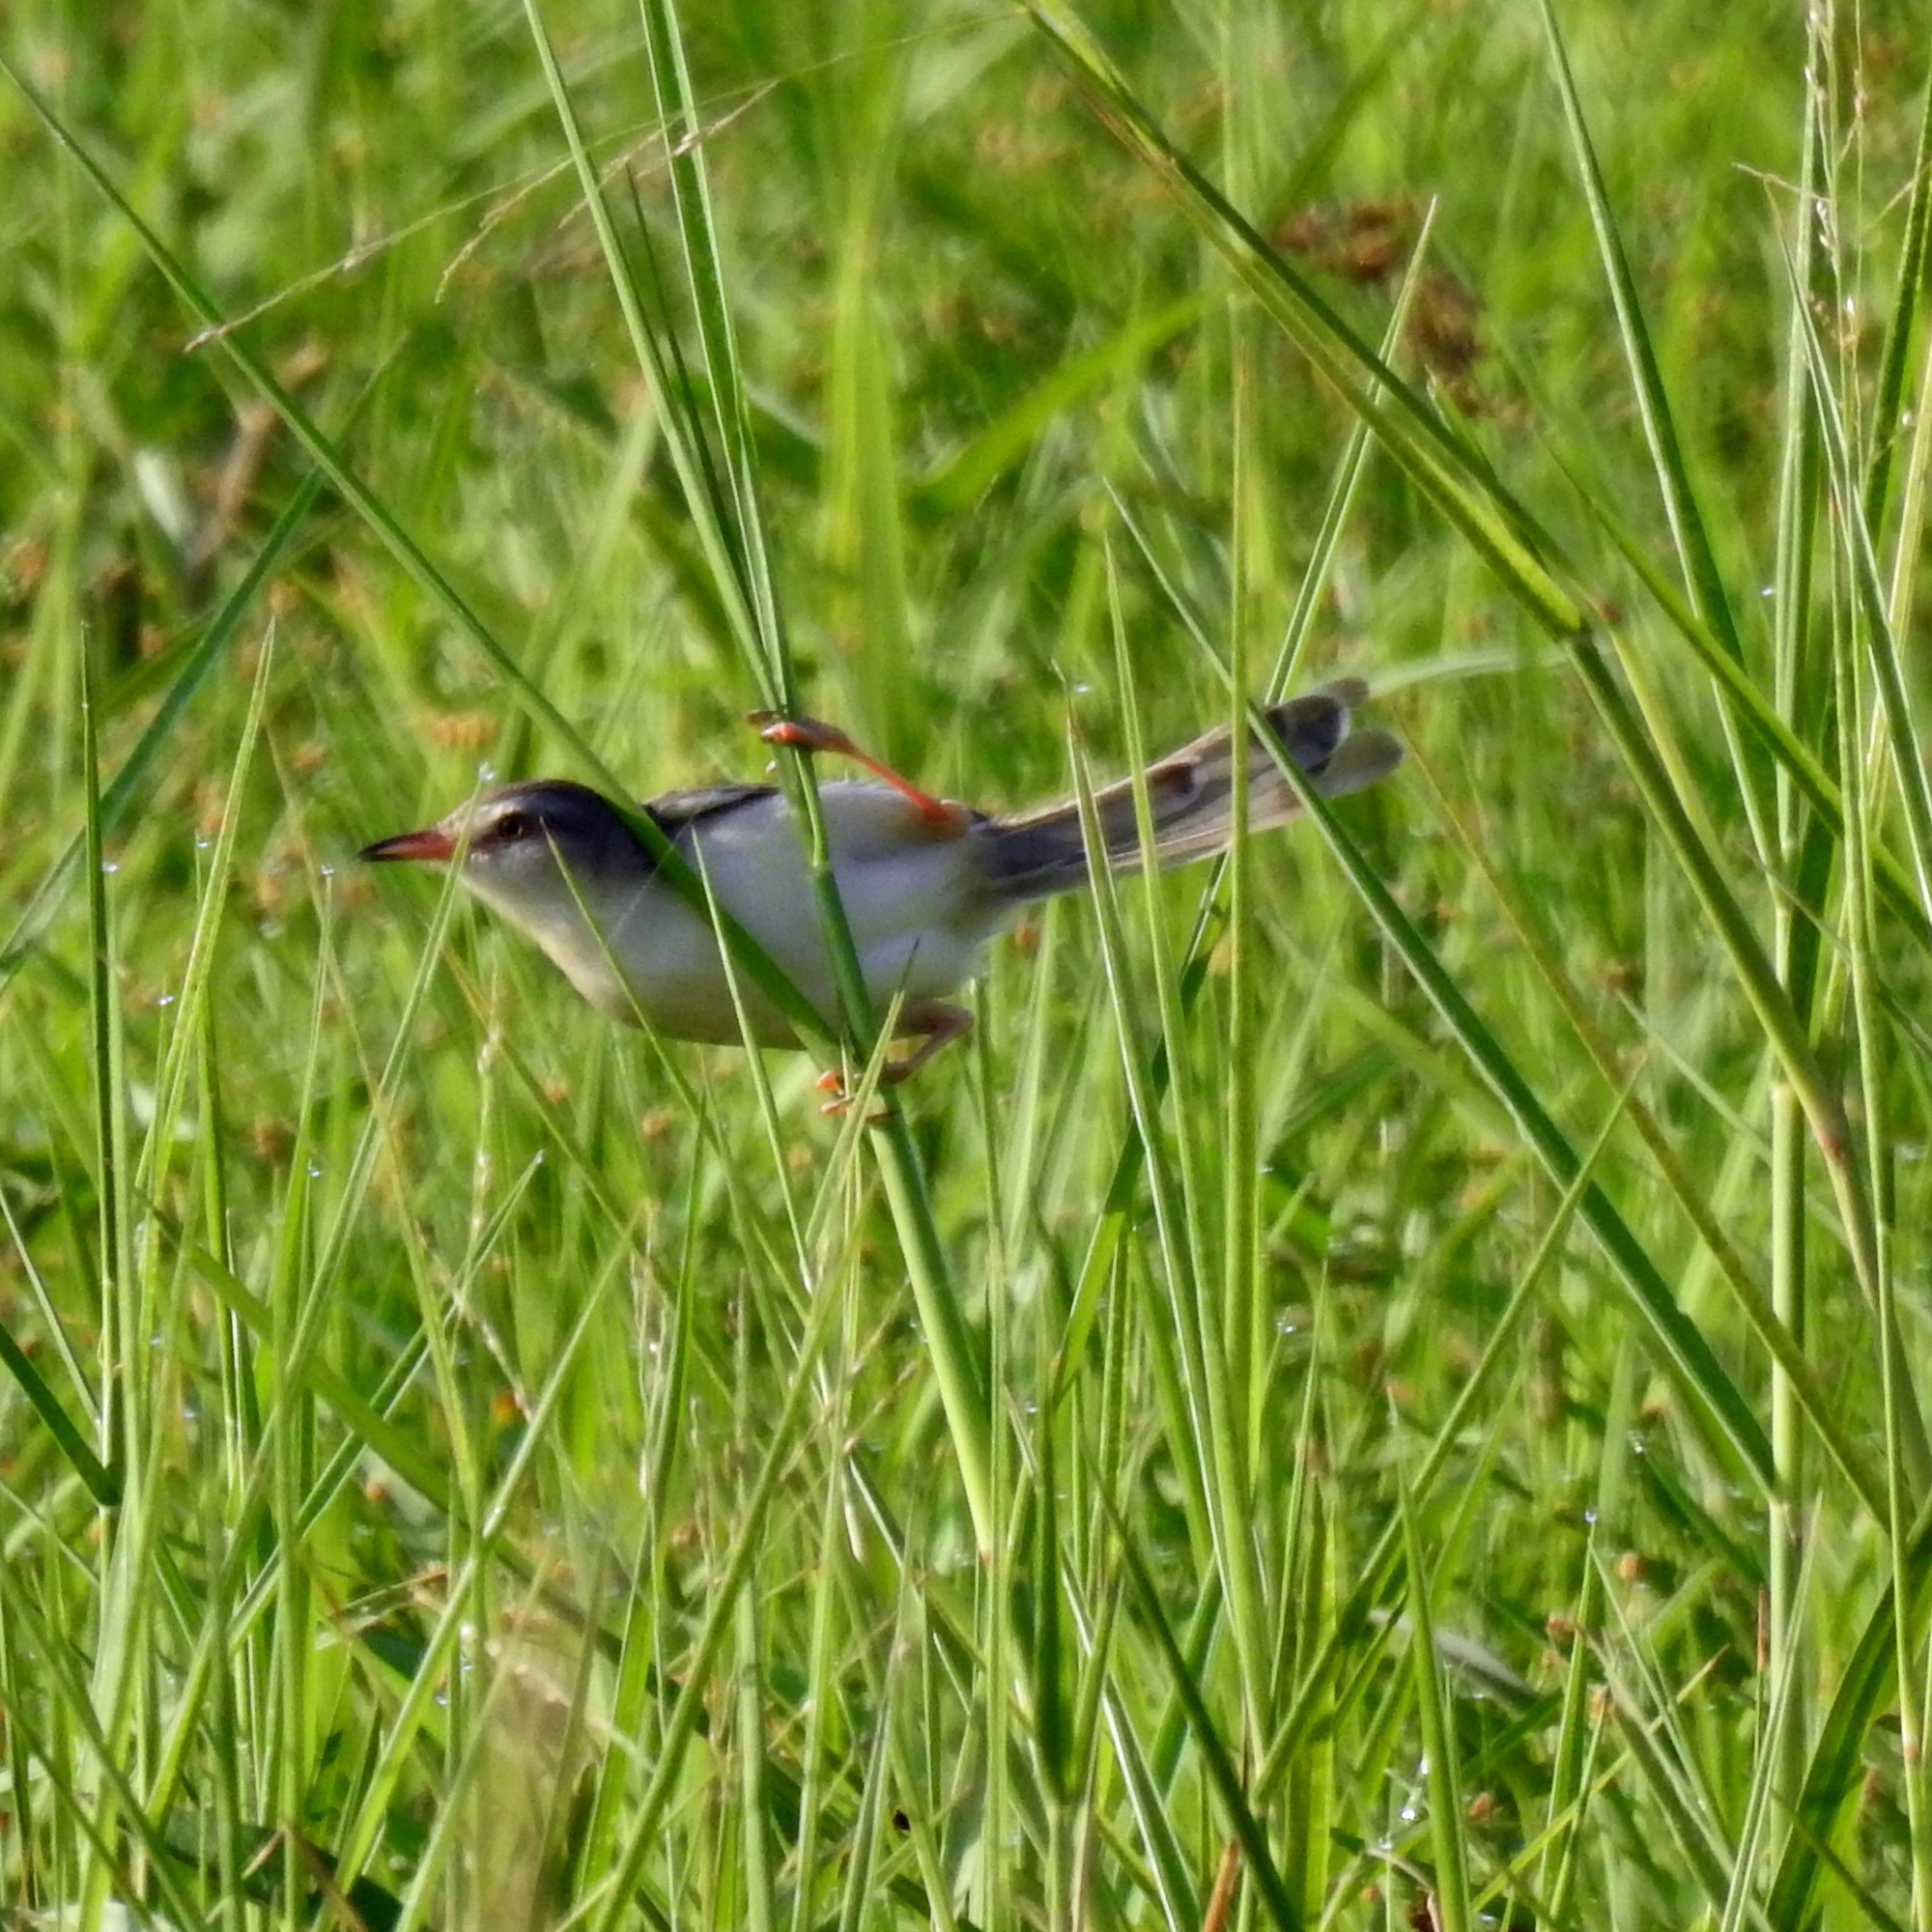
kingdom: Animalia
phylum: Chordata
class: Aves
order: Passeriformes
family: Cisticolidae
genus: Prinia
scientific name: Prinia inornata
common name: Plain prinia
